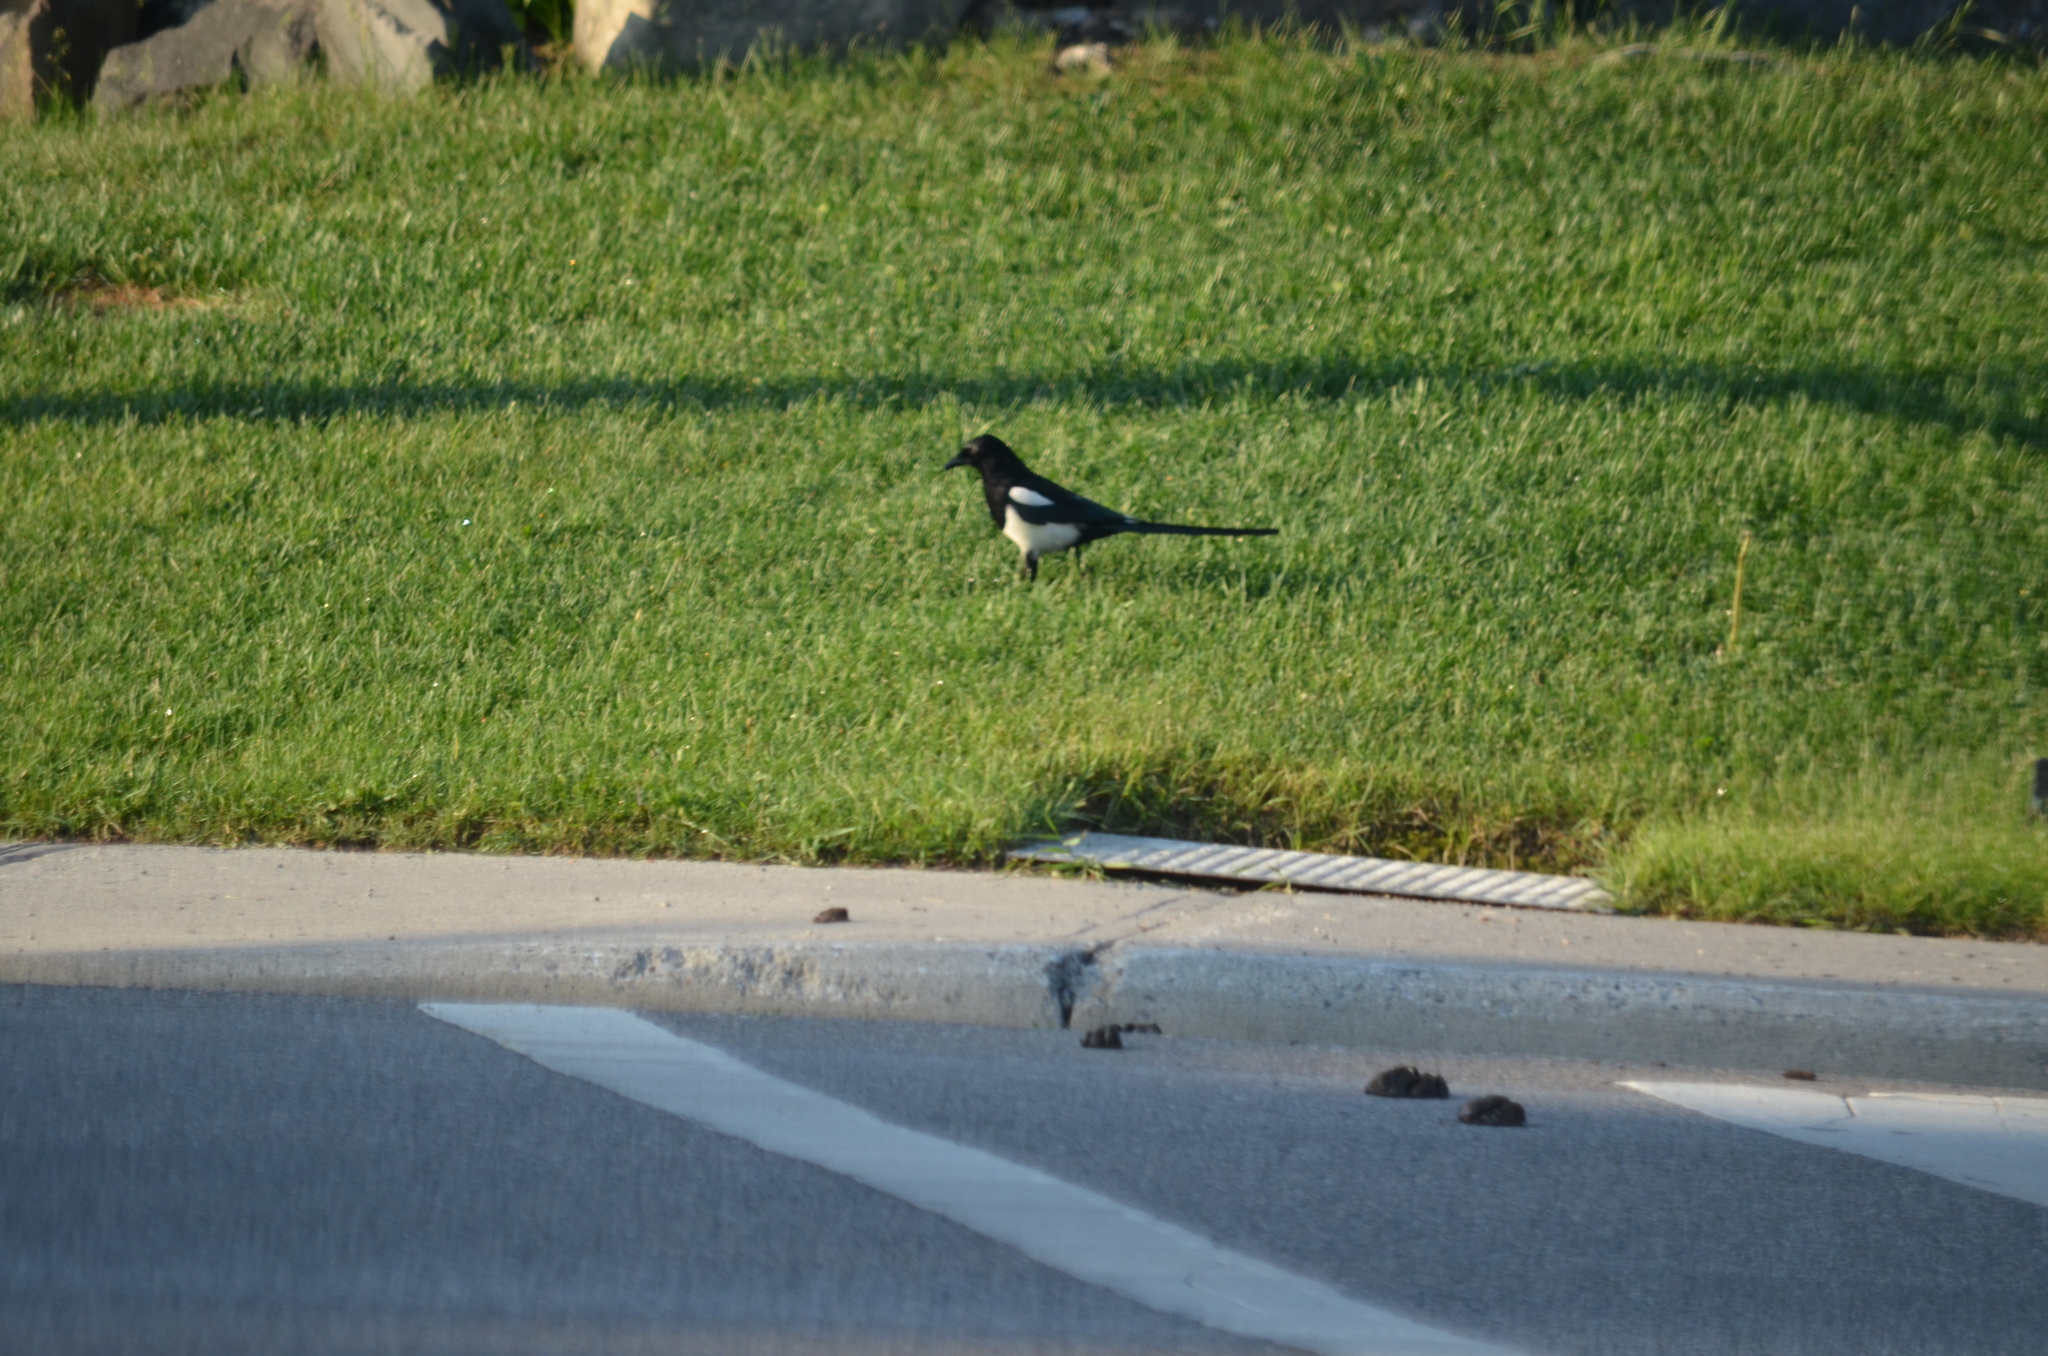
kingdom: Animalia
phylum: Chordata
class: Aves
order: Passeriformes
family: Corvidae
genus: Pica
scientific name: Pica hudsonia
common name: Black-billed magpie
